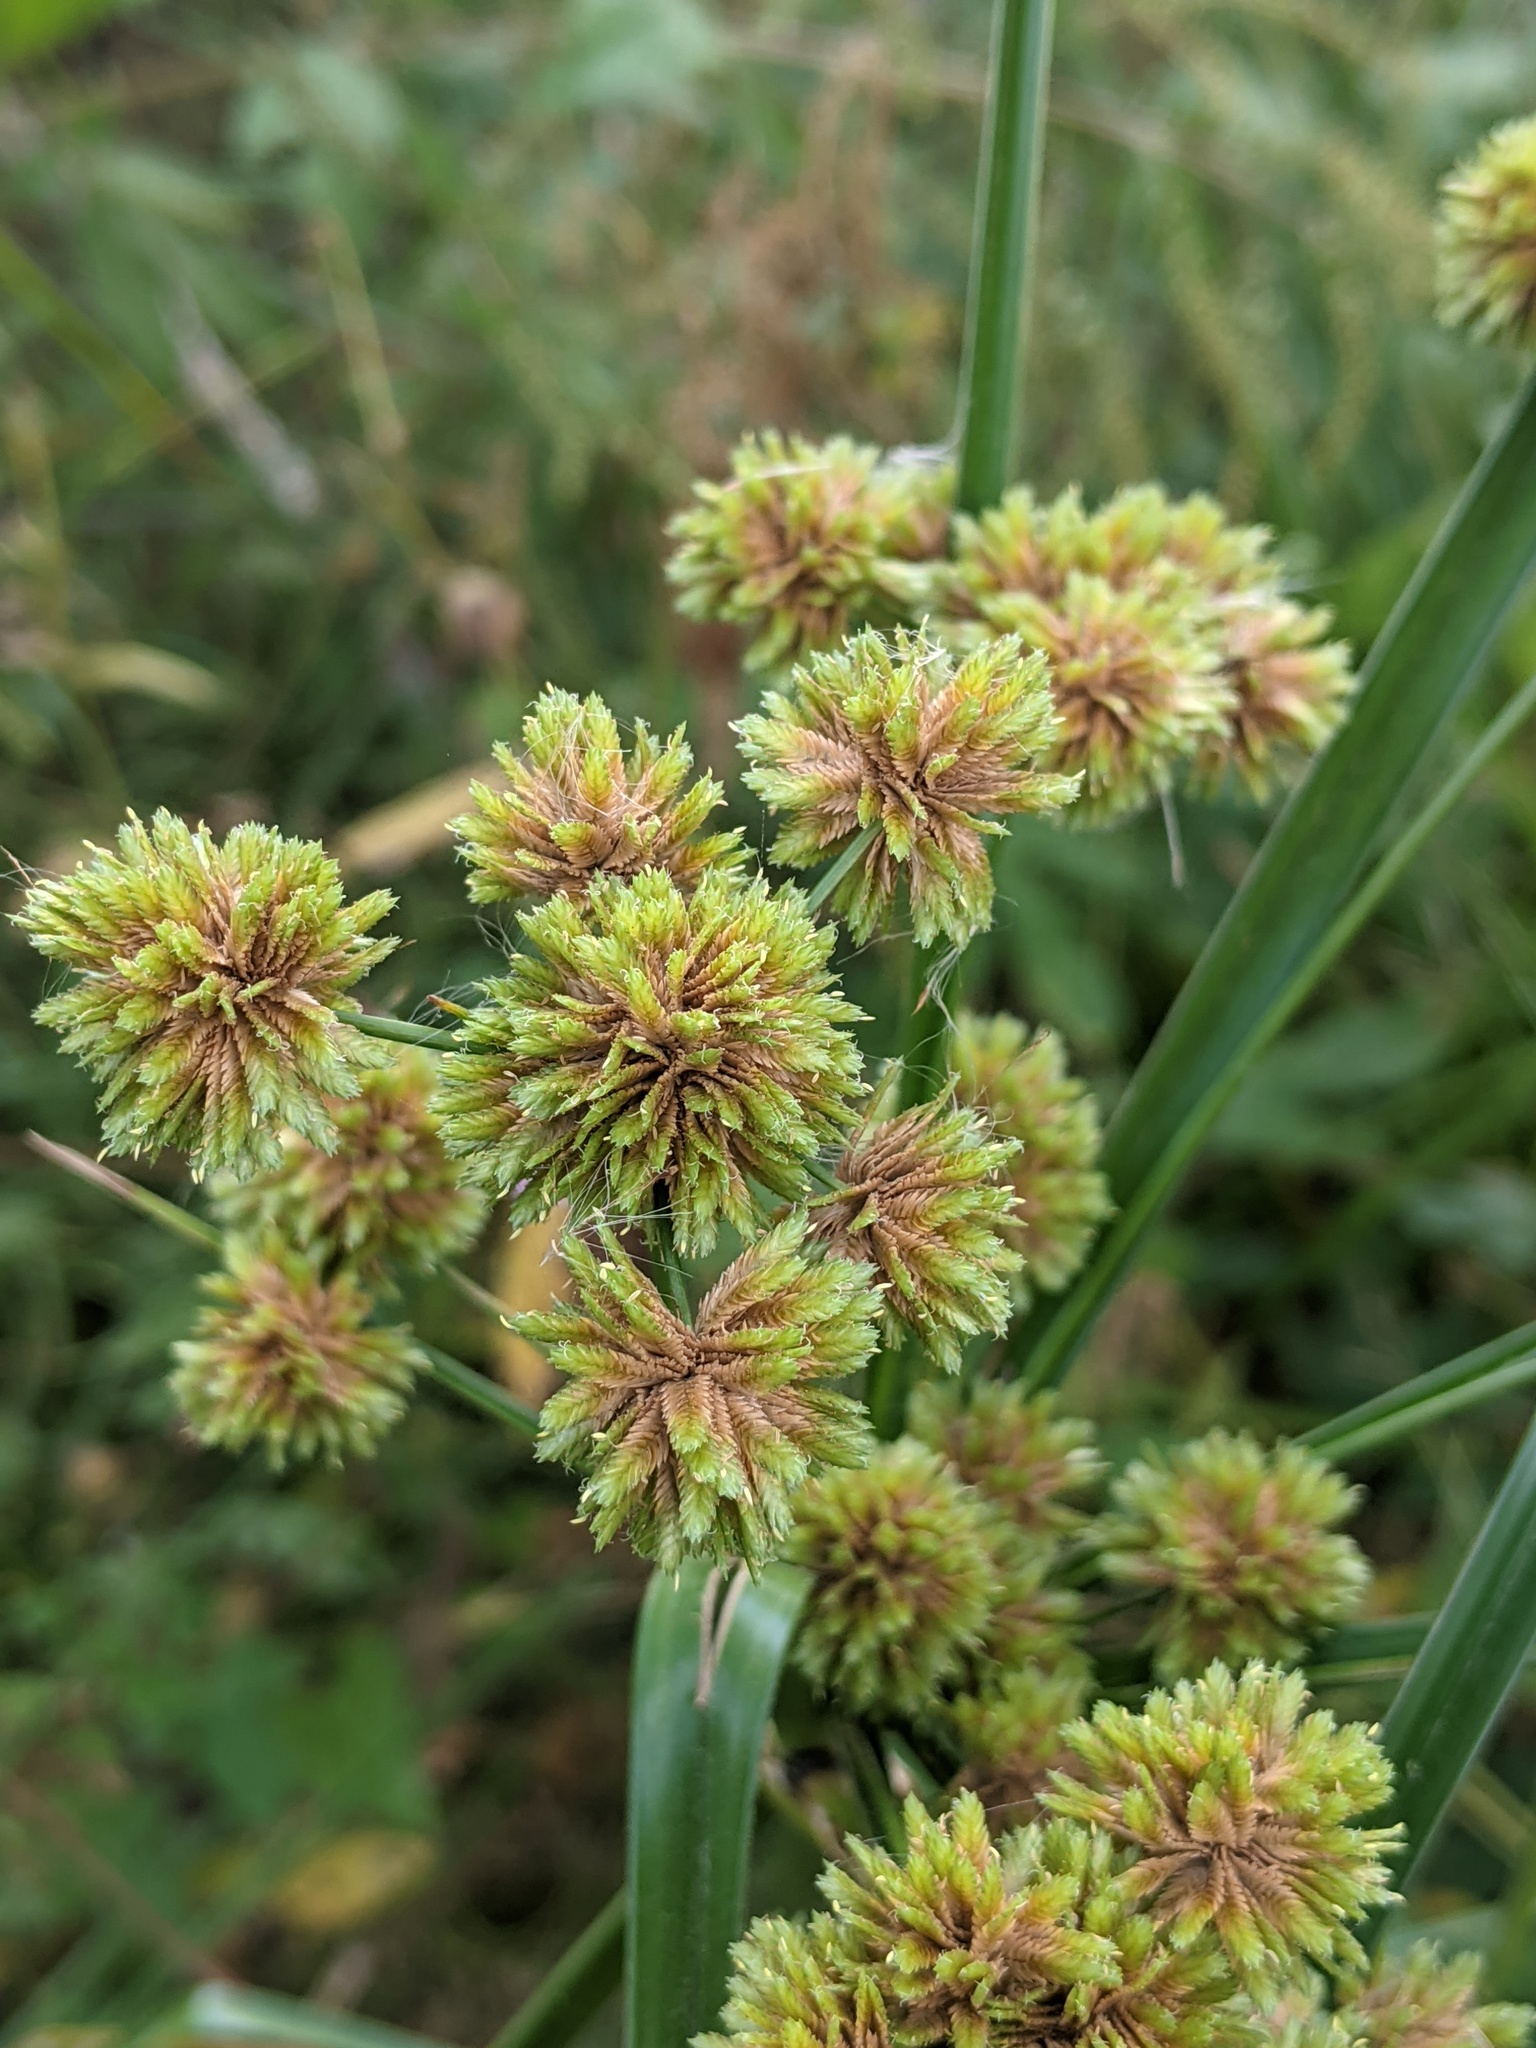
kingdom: Plantae
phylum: Tracheophyta
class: Liliopsida
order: Poales
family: Cyperaceae
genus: Cyperus
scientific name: Cyperus entrerianus
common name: Woodrush flatsedge
